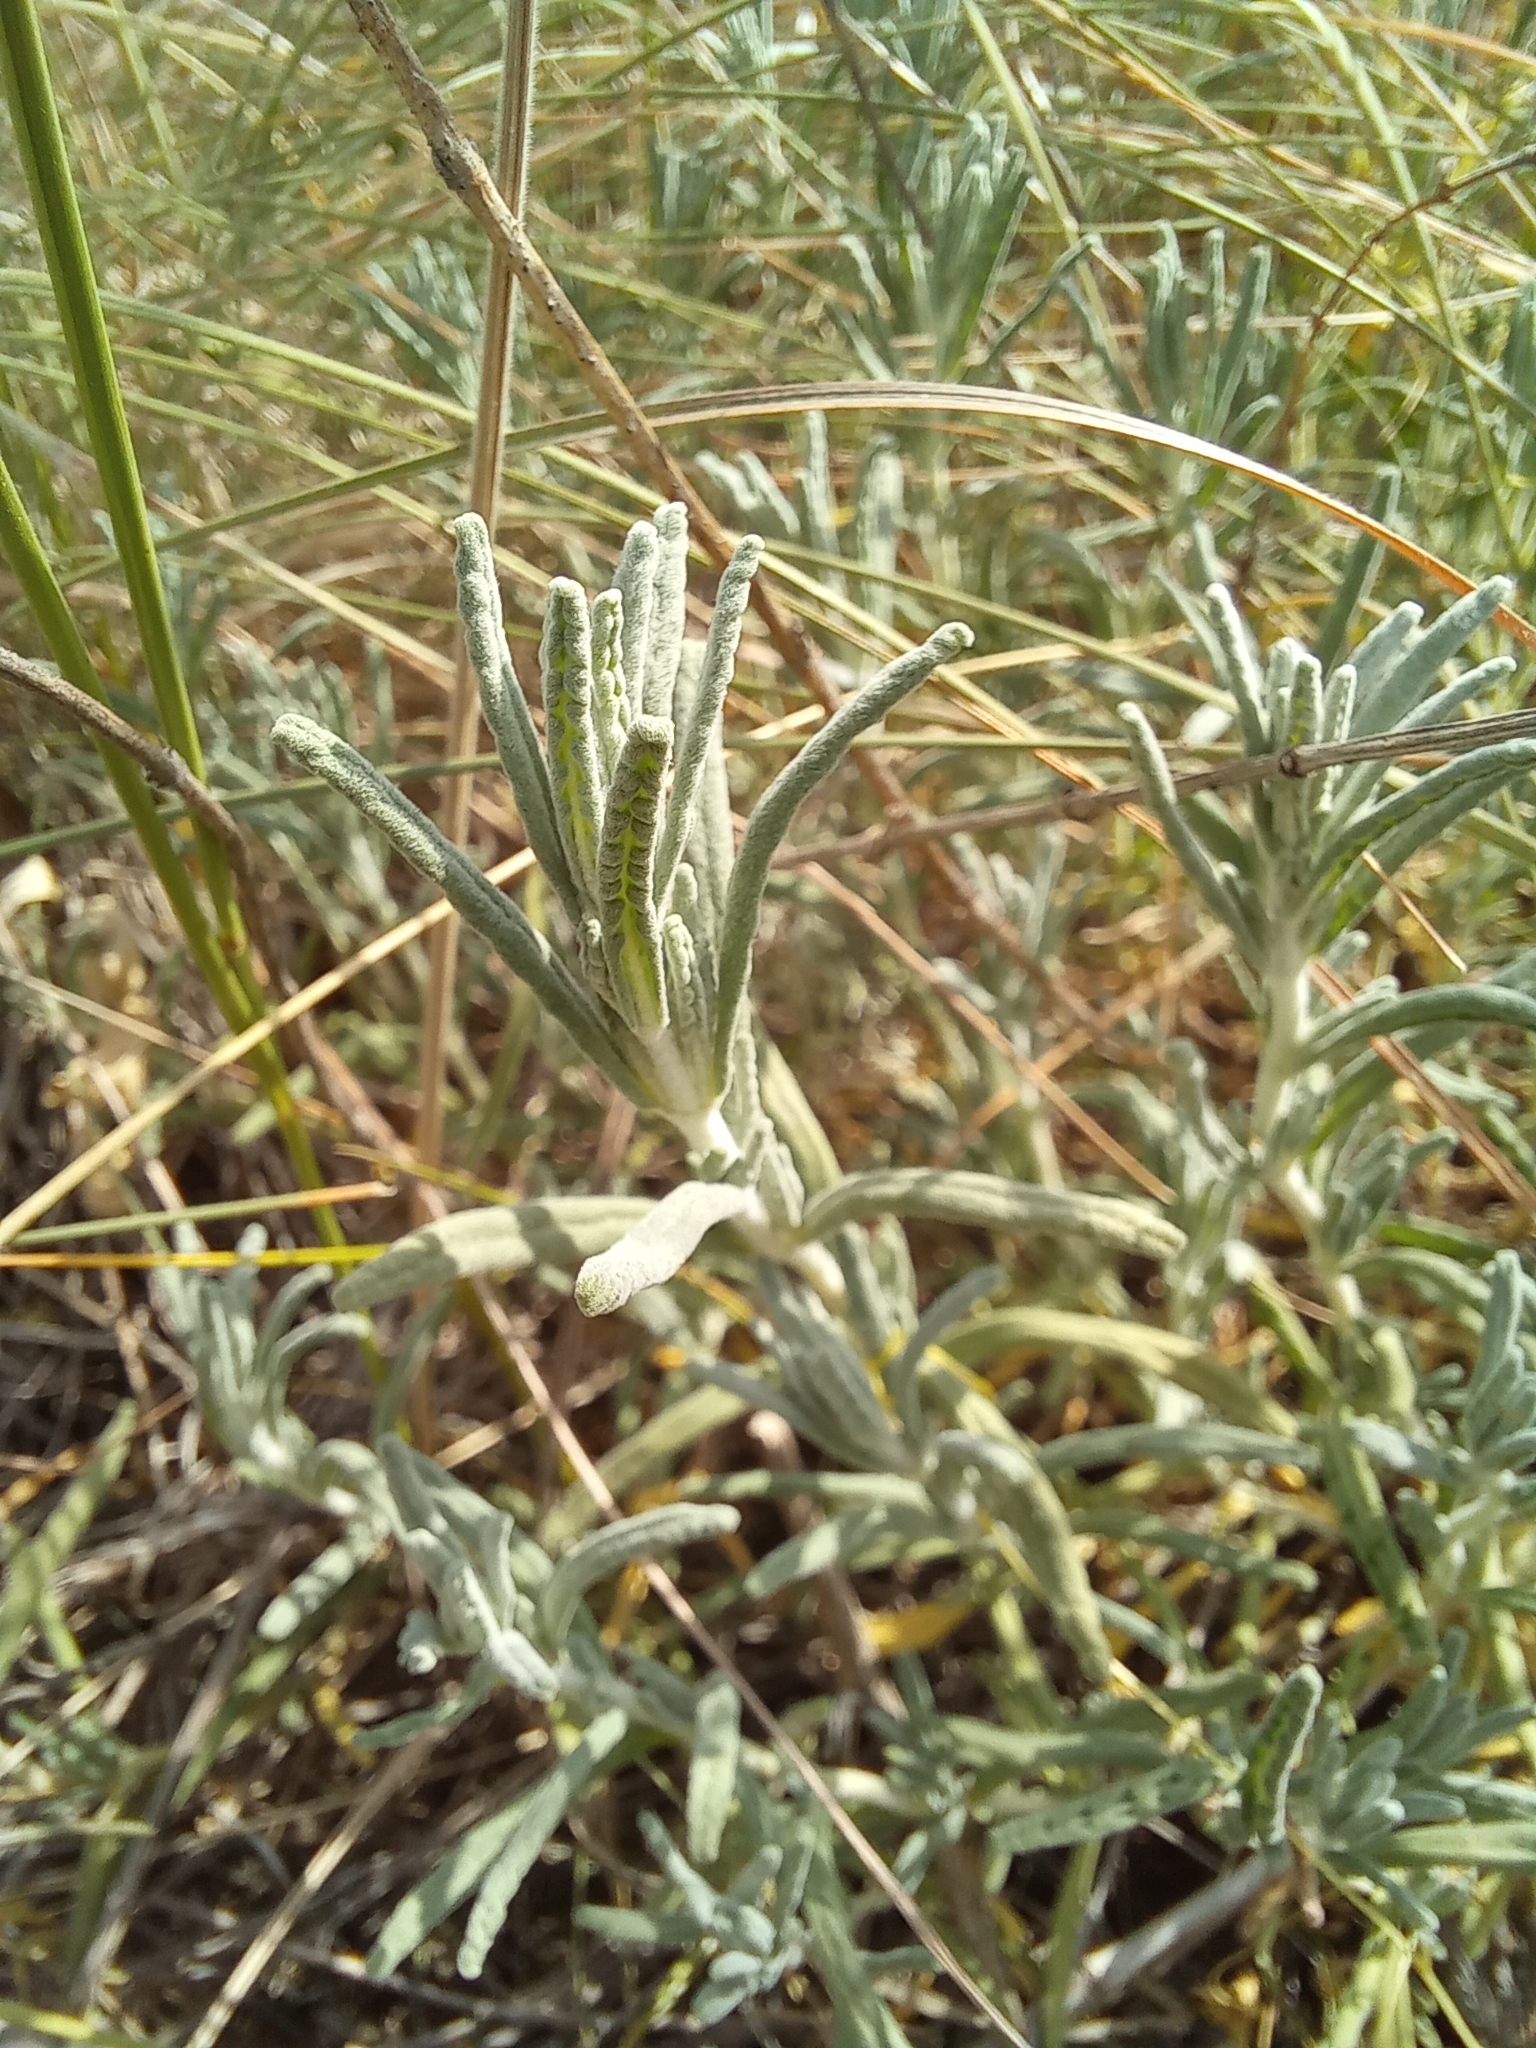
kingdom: Plantae
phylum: Tracheophyta
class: Magnoliopsida
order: Lamiales
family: Lamiaceae
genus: Teucrium
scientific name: Teucrium polium
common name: Poley
